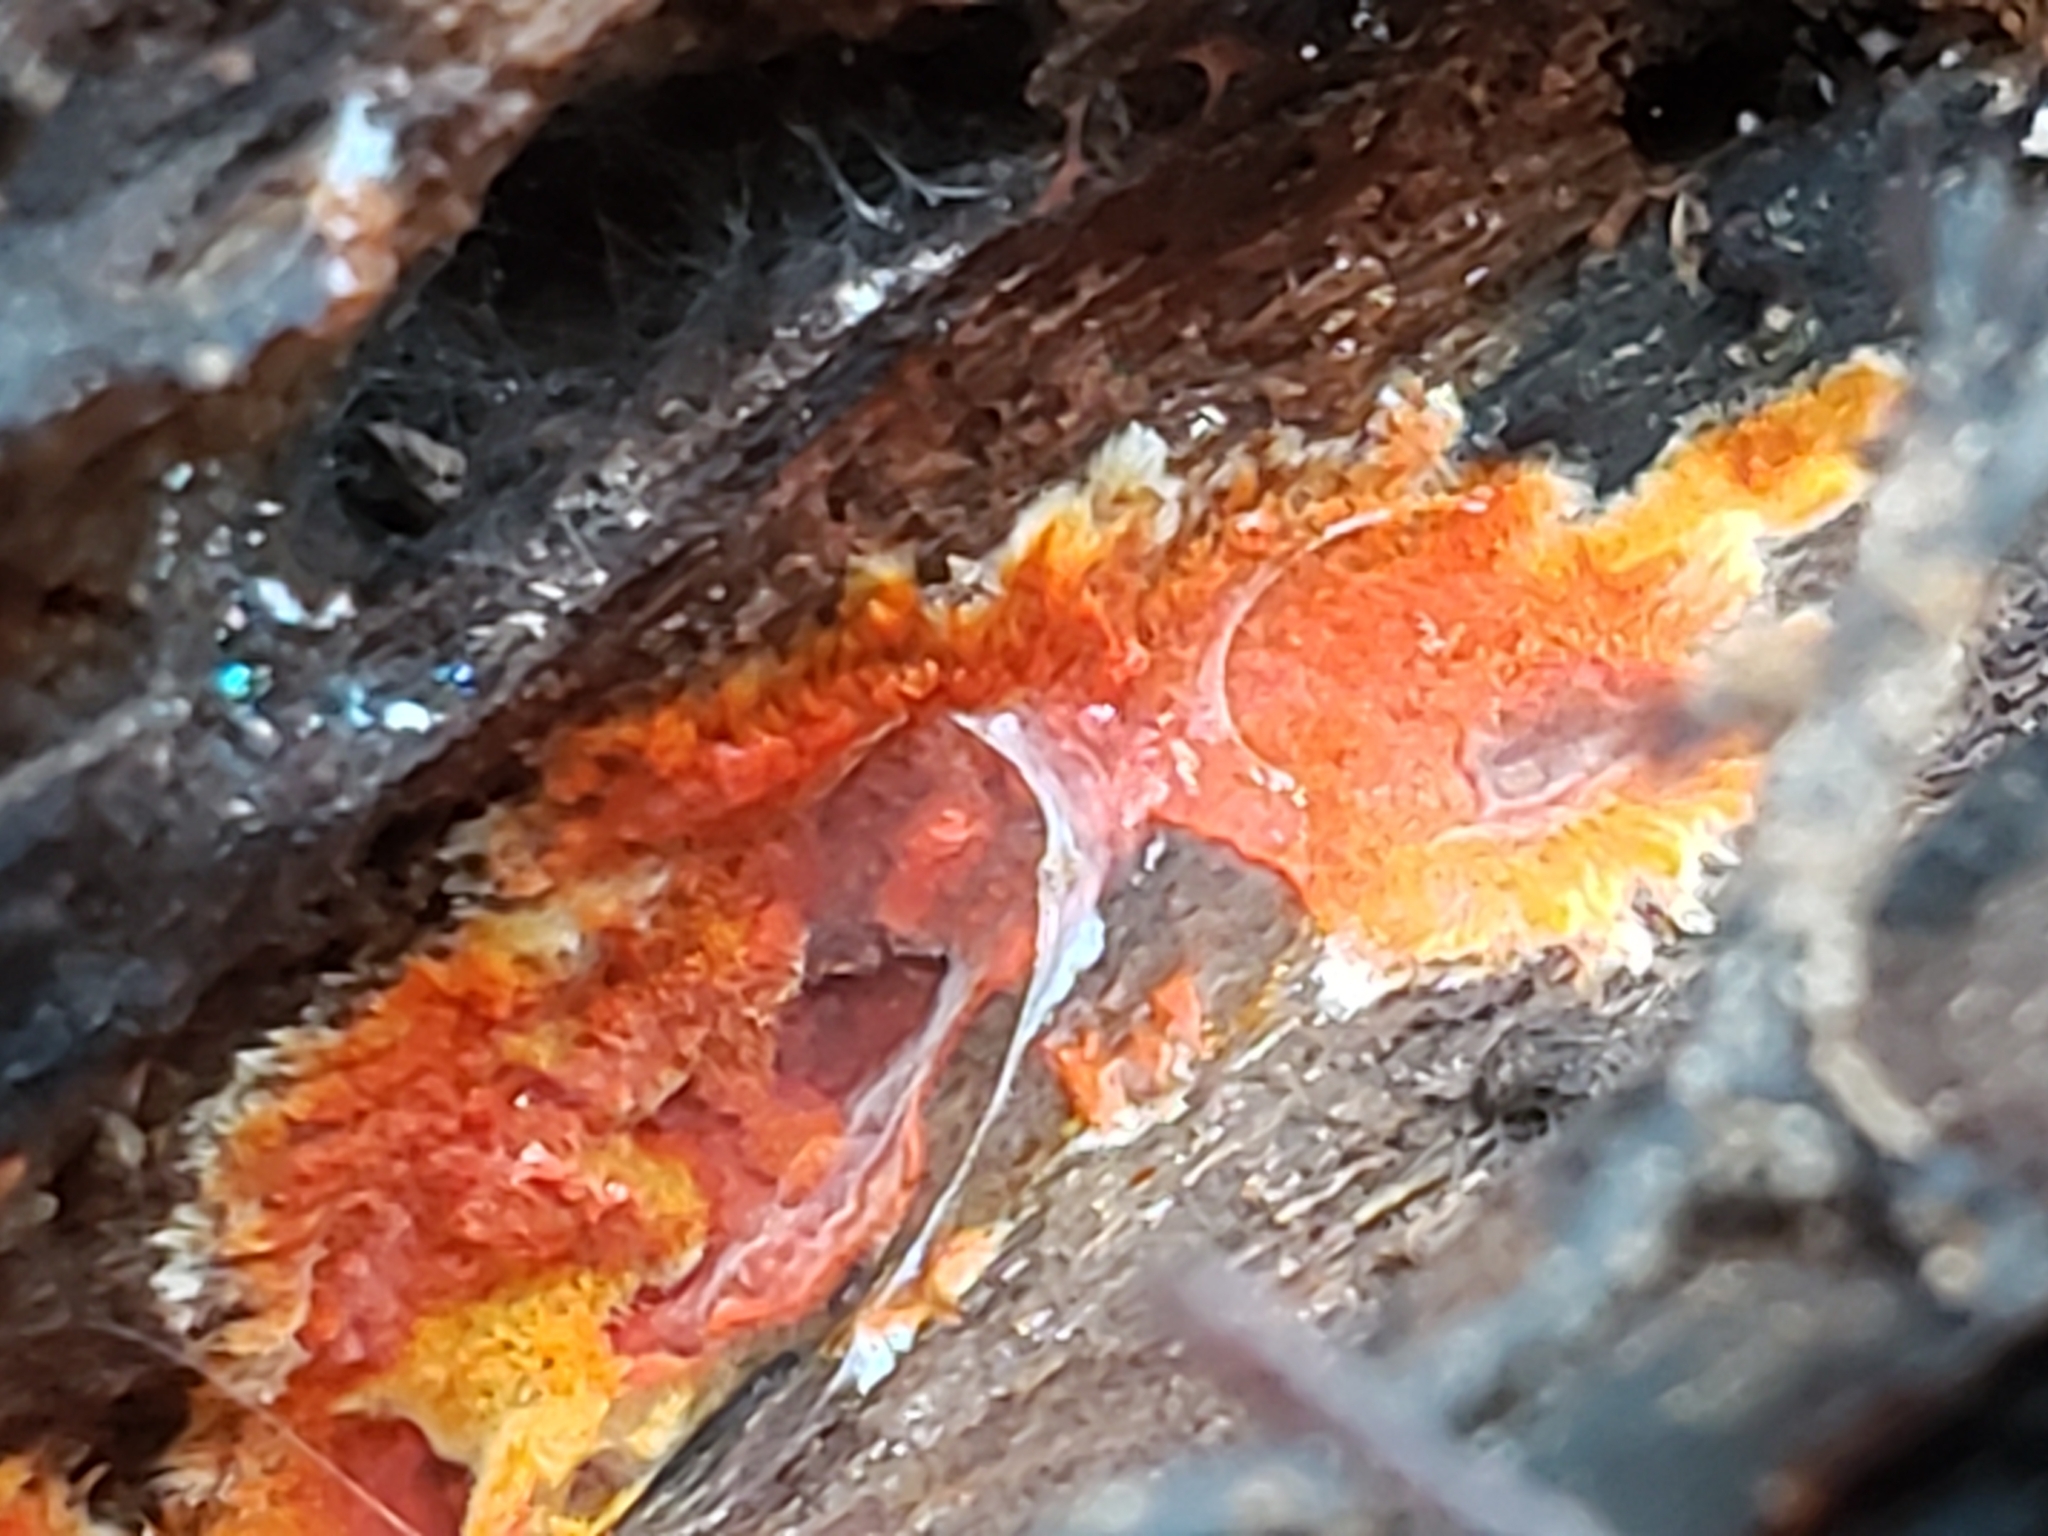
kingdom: Fungi
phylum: Basidiomycota
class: Agaricomycetes
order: Polyporales
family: Meruliaceae
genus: Phlebia
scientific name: Phlebia coccineofulva
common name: Scarlet waxcrust
